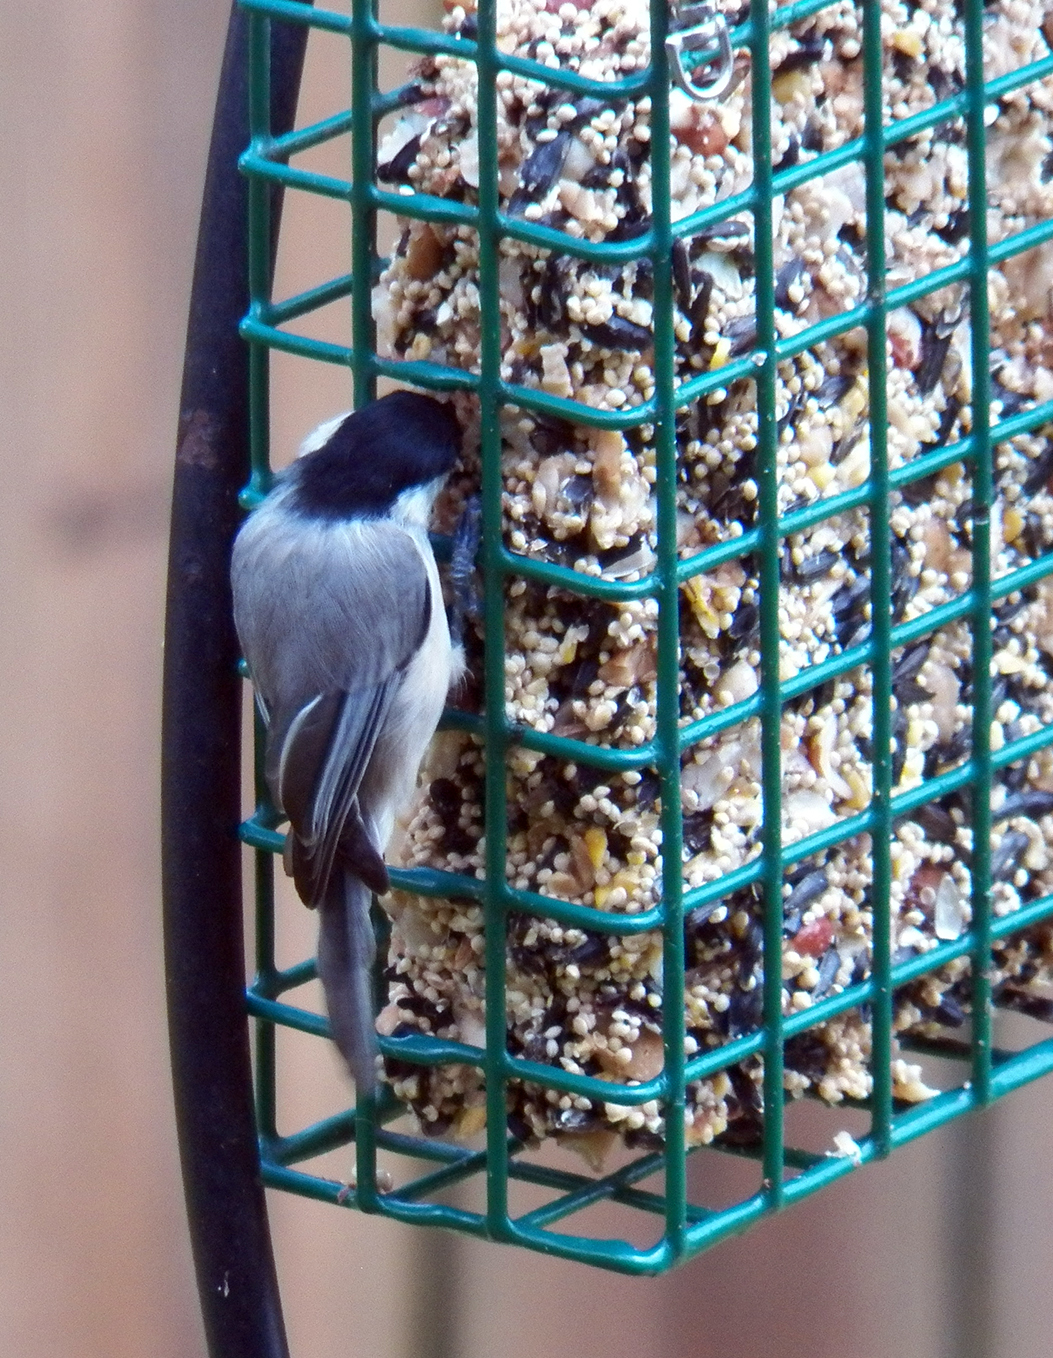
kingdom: Animalia
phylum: Chordata
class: Aves
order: Passeriformes
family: Paridae
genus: Poecile
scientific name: Poecile carolinensis
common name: Carolina chickadee
